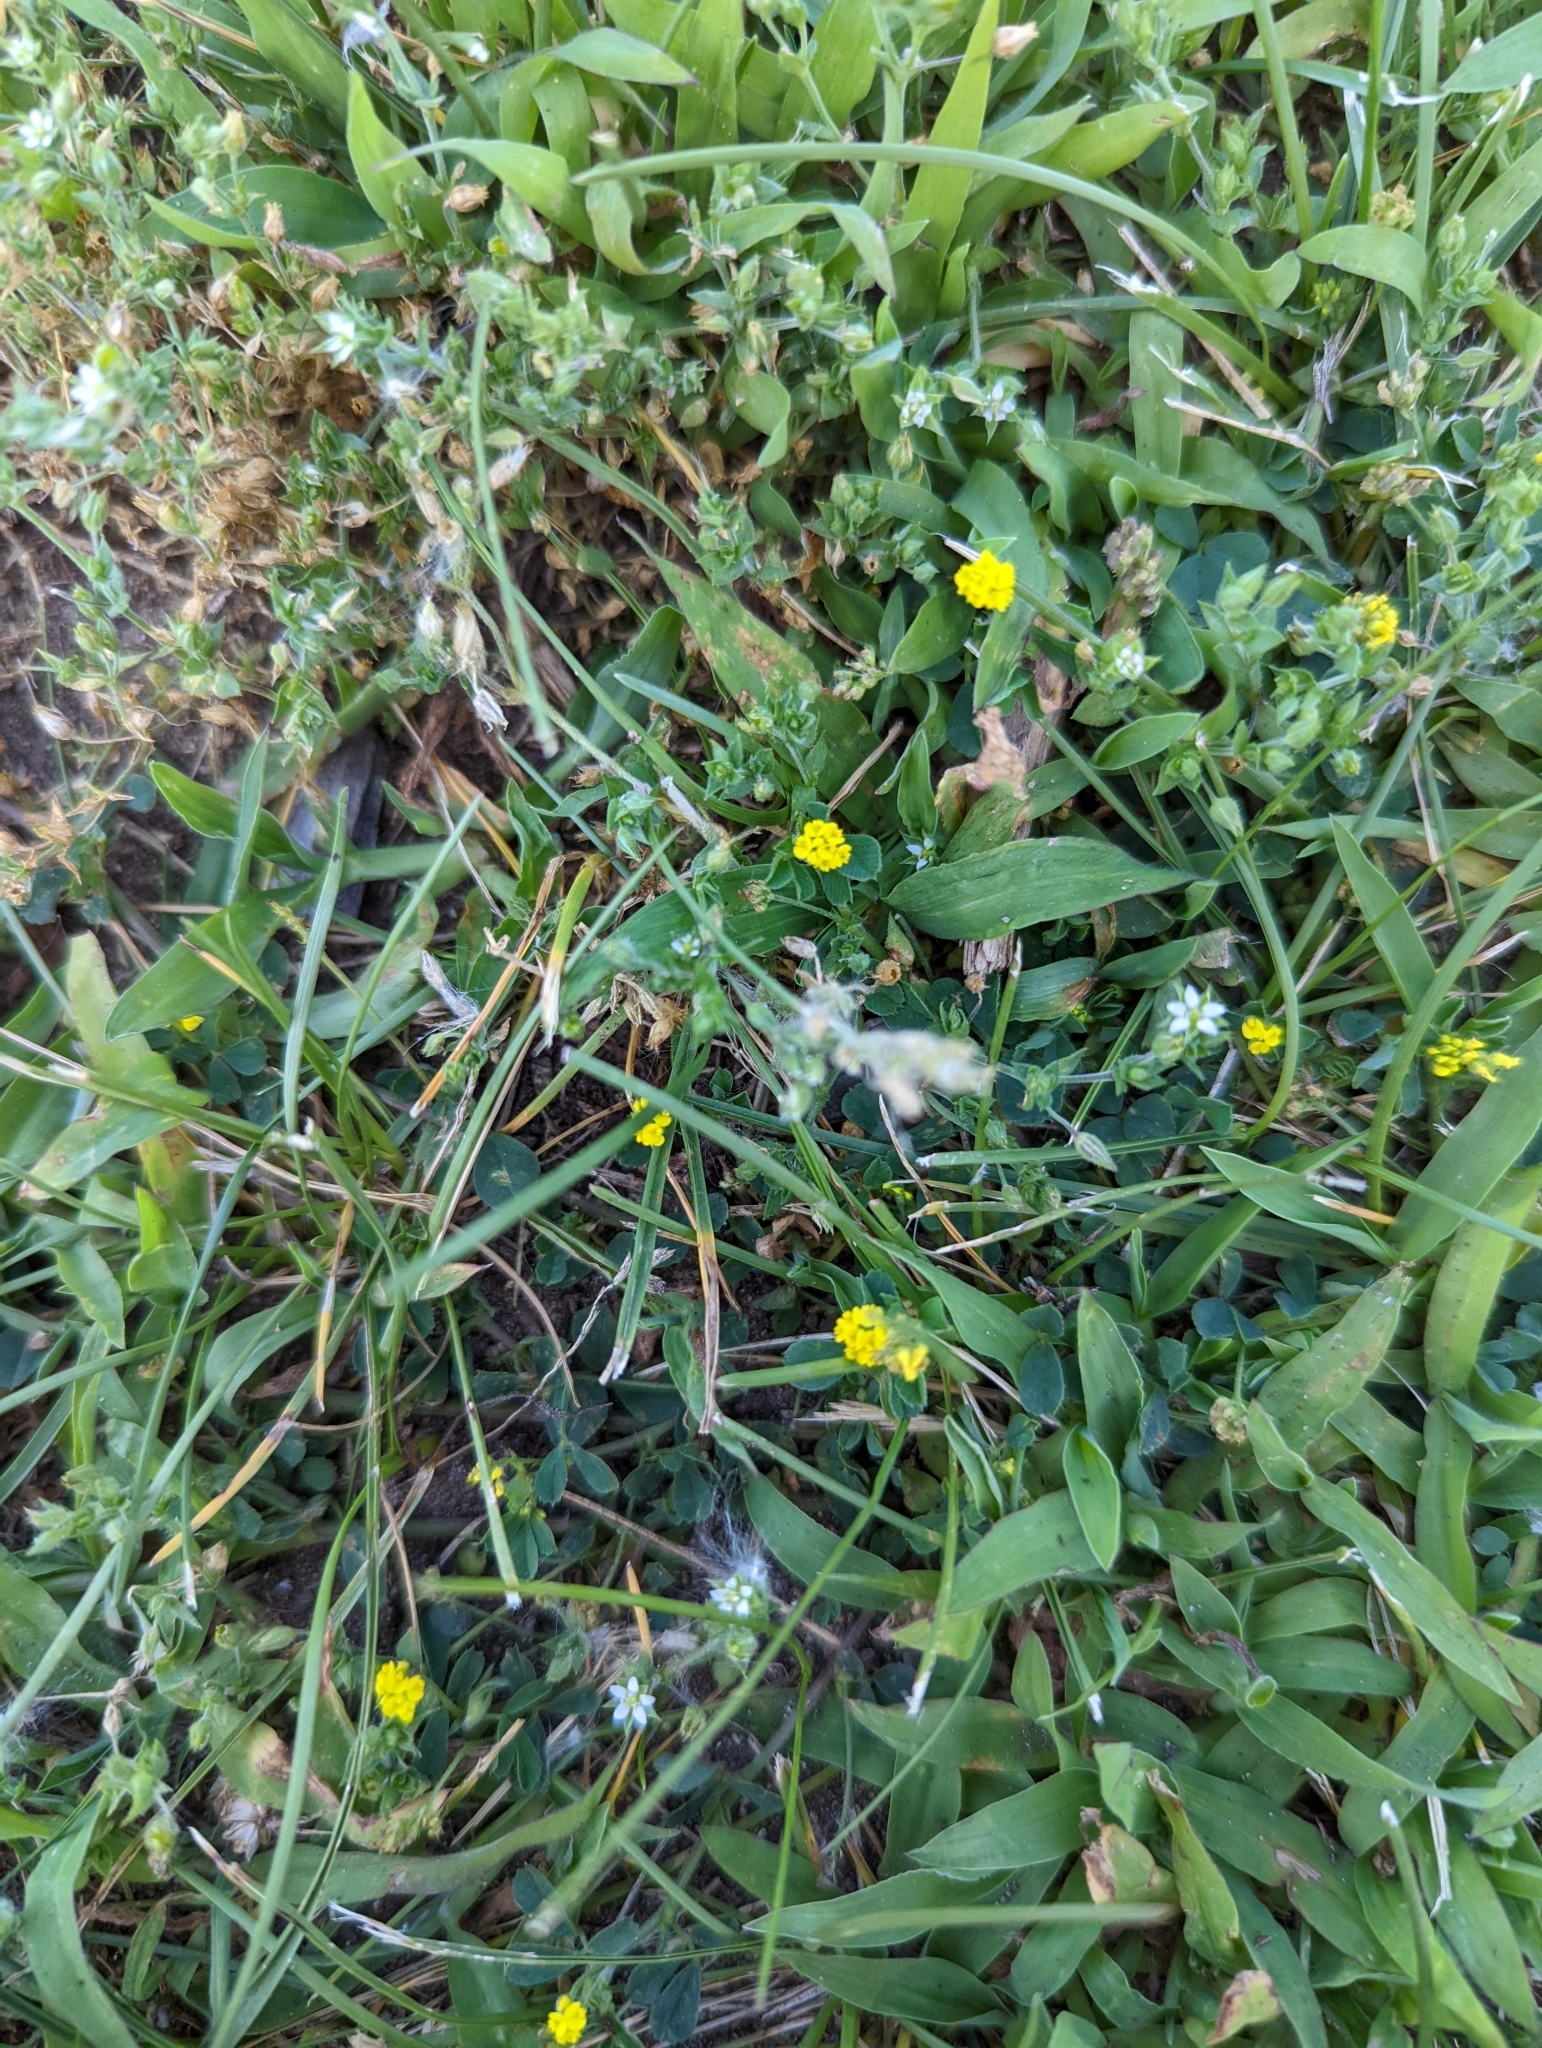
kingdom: Plantae
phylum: Tracheophyta
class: Magnoliopsida
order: Fabales
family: Fabaceae
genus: Medicago
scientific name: Medicago lupulina
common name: Black medick
